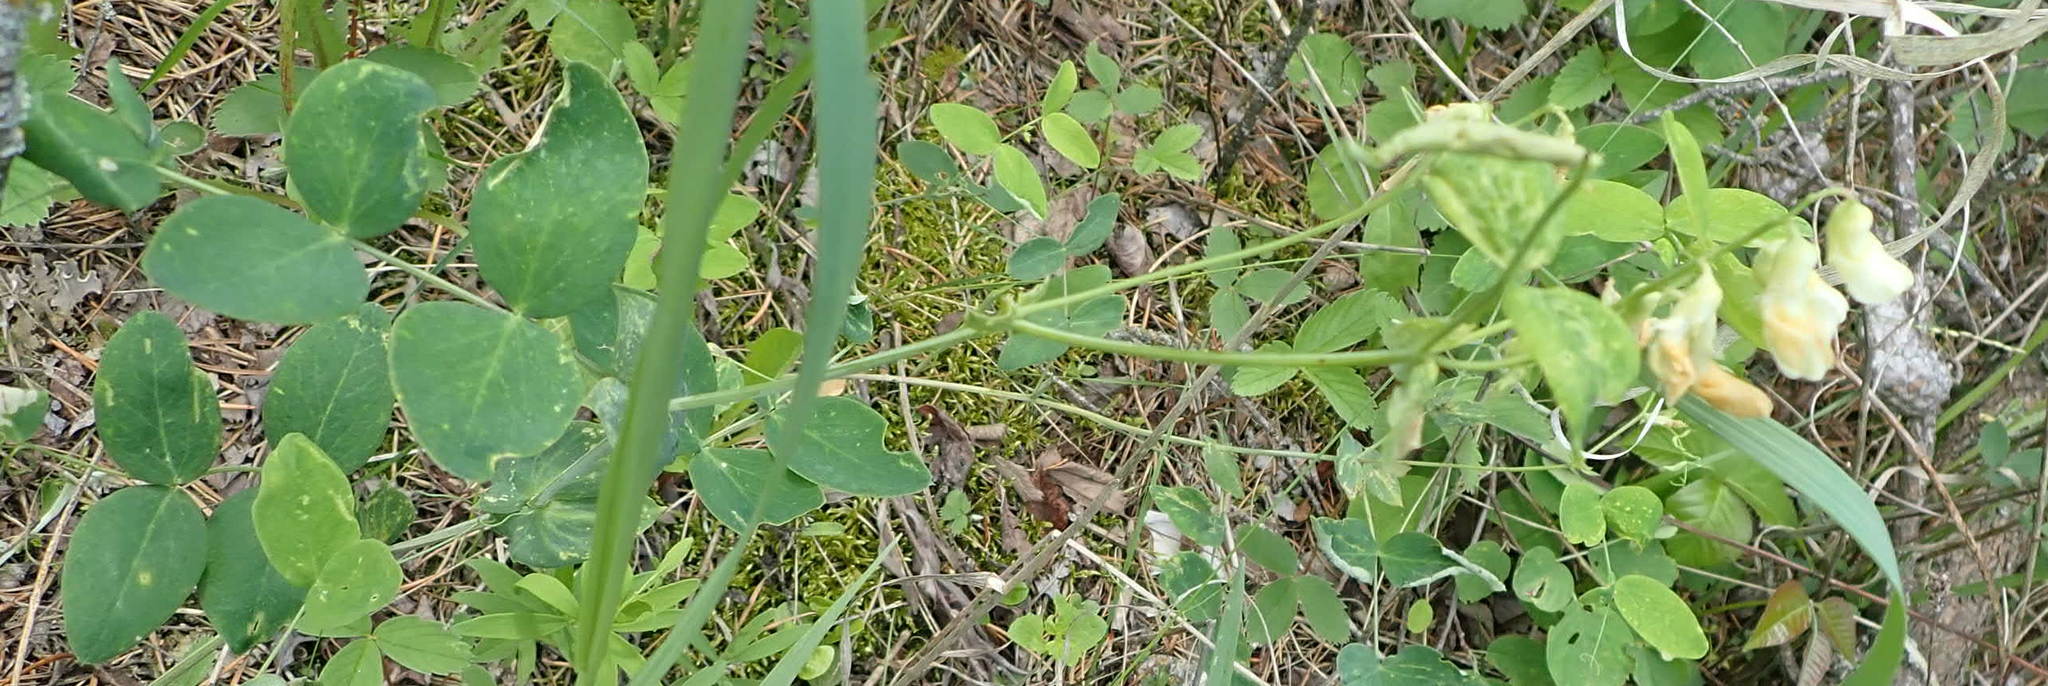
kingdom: Plantae
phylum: Tracheophyta
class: Magnoliopsida
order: Fabales
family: Fabaceae
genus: Lathyrus
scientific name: Lathyrus ochroleucus
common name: Pale vetchling
